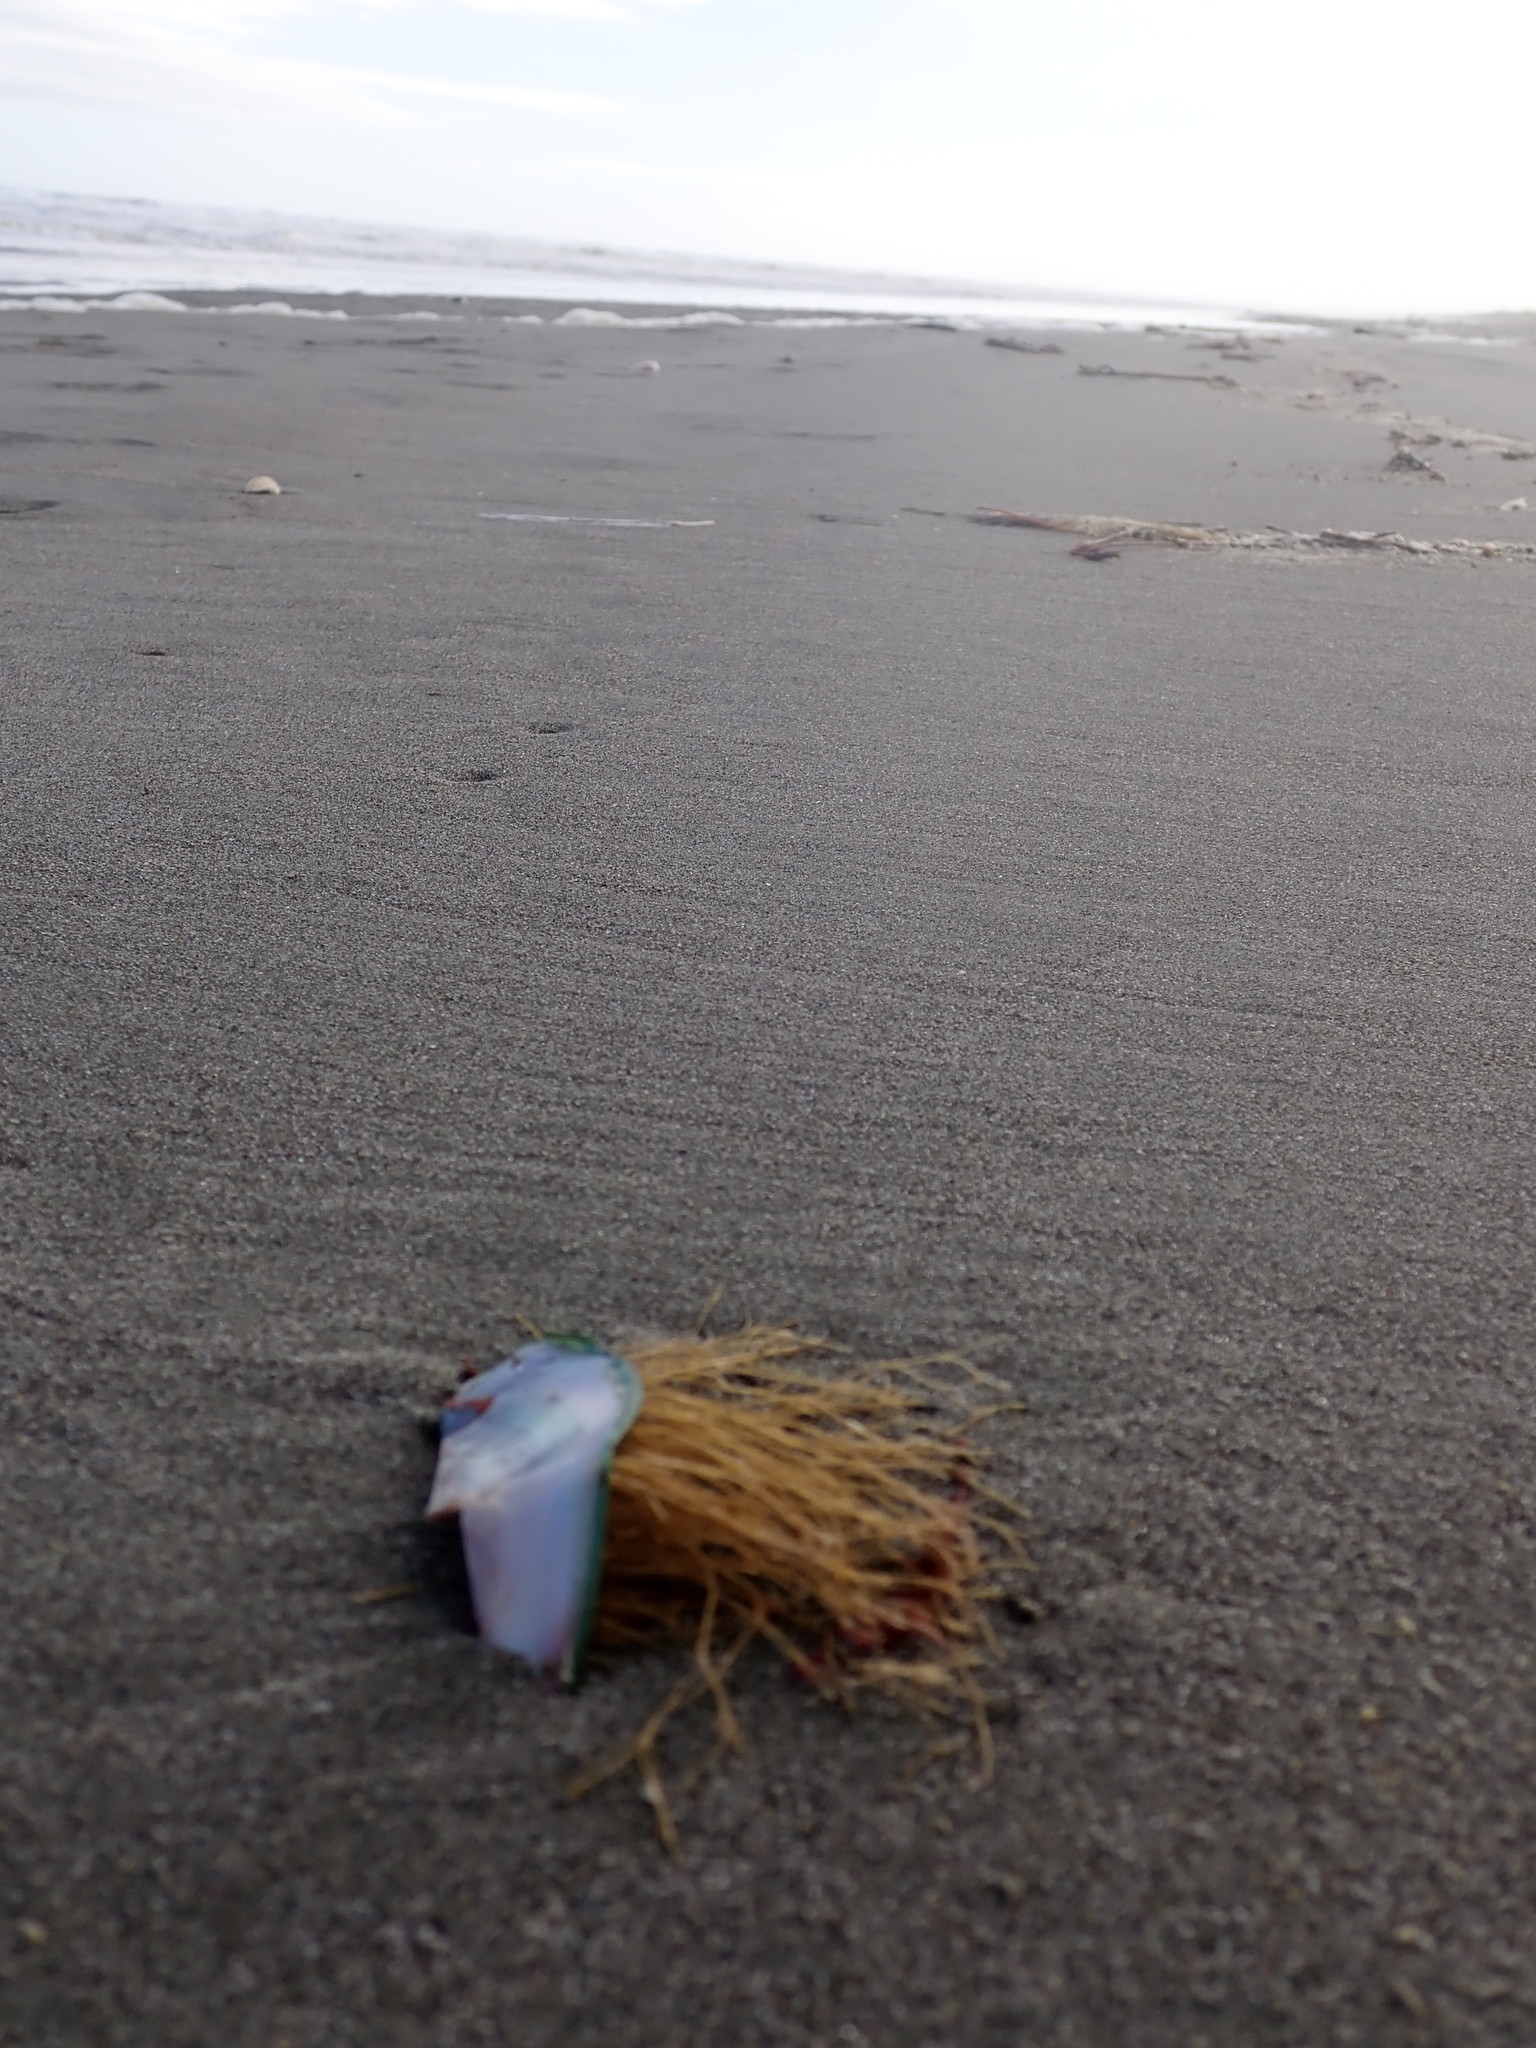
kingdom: Animalia
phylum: Cnidaria
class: Hydrozoa
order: Leptothecata
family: Sertulariidae
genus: Amphisbetia
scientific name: Amphisbetia bispinosa
